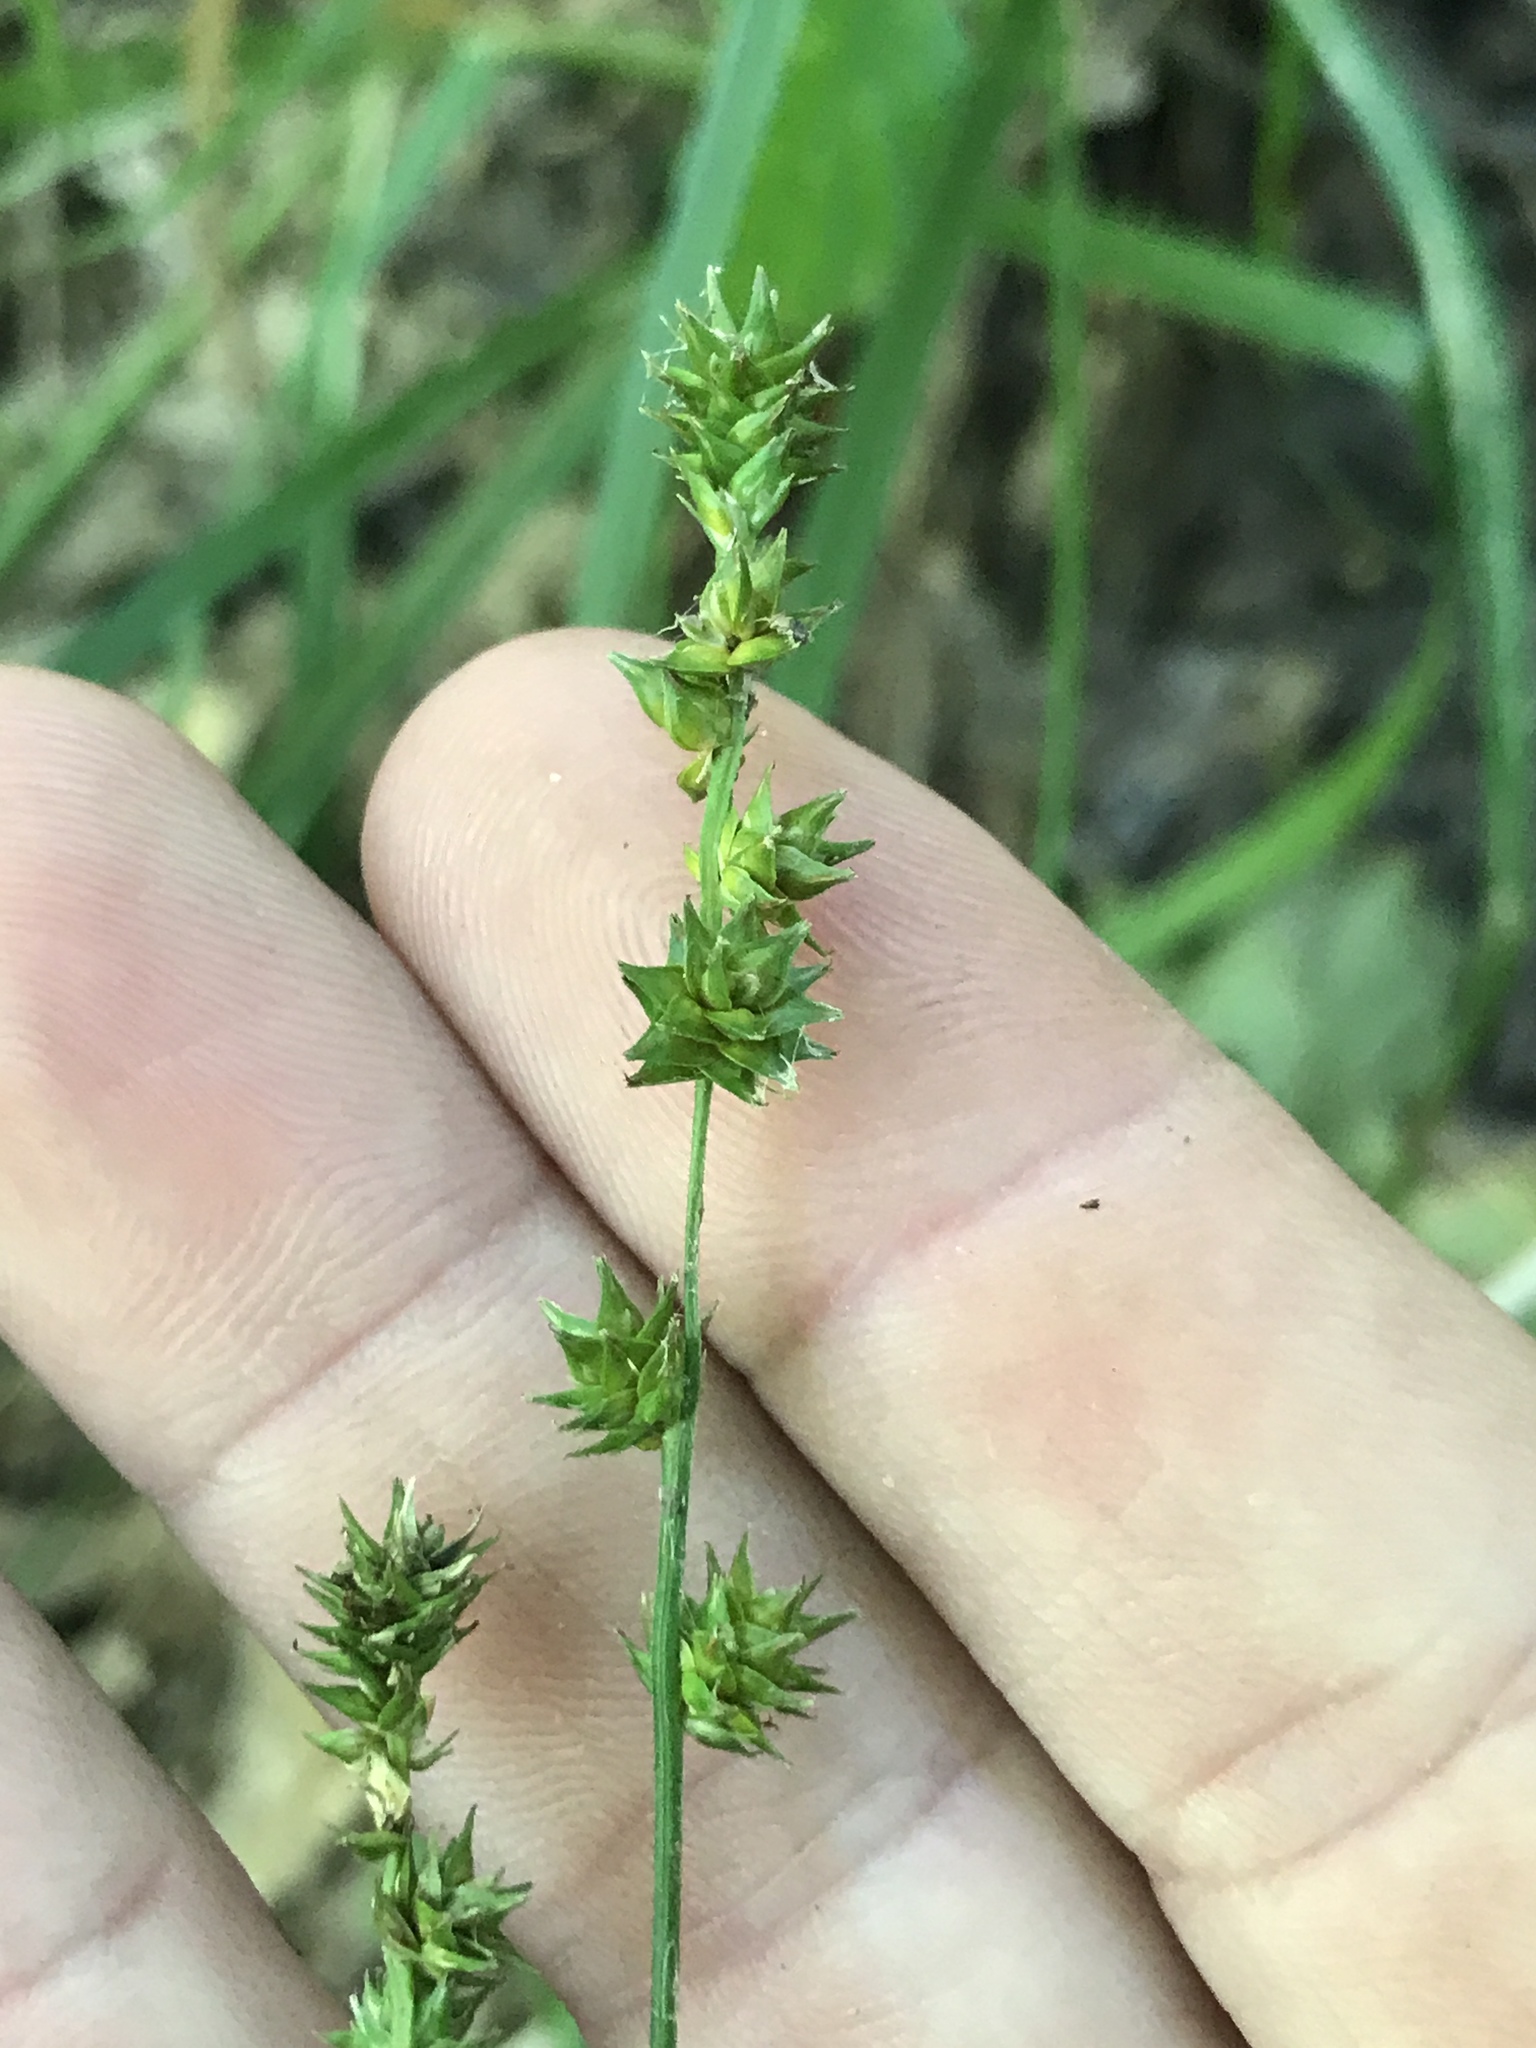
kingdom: Plantae
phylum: Tracheophyta
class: Liliopsida
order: Poales
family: Cyperaceae
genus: Carex
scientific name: Carex sparganioides
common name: Burreed sedge
